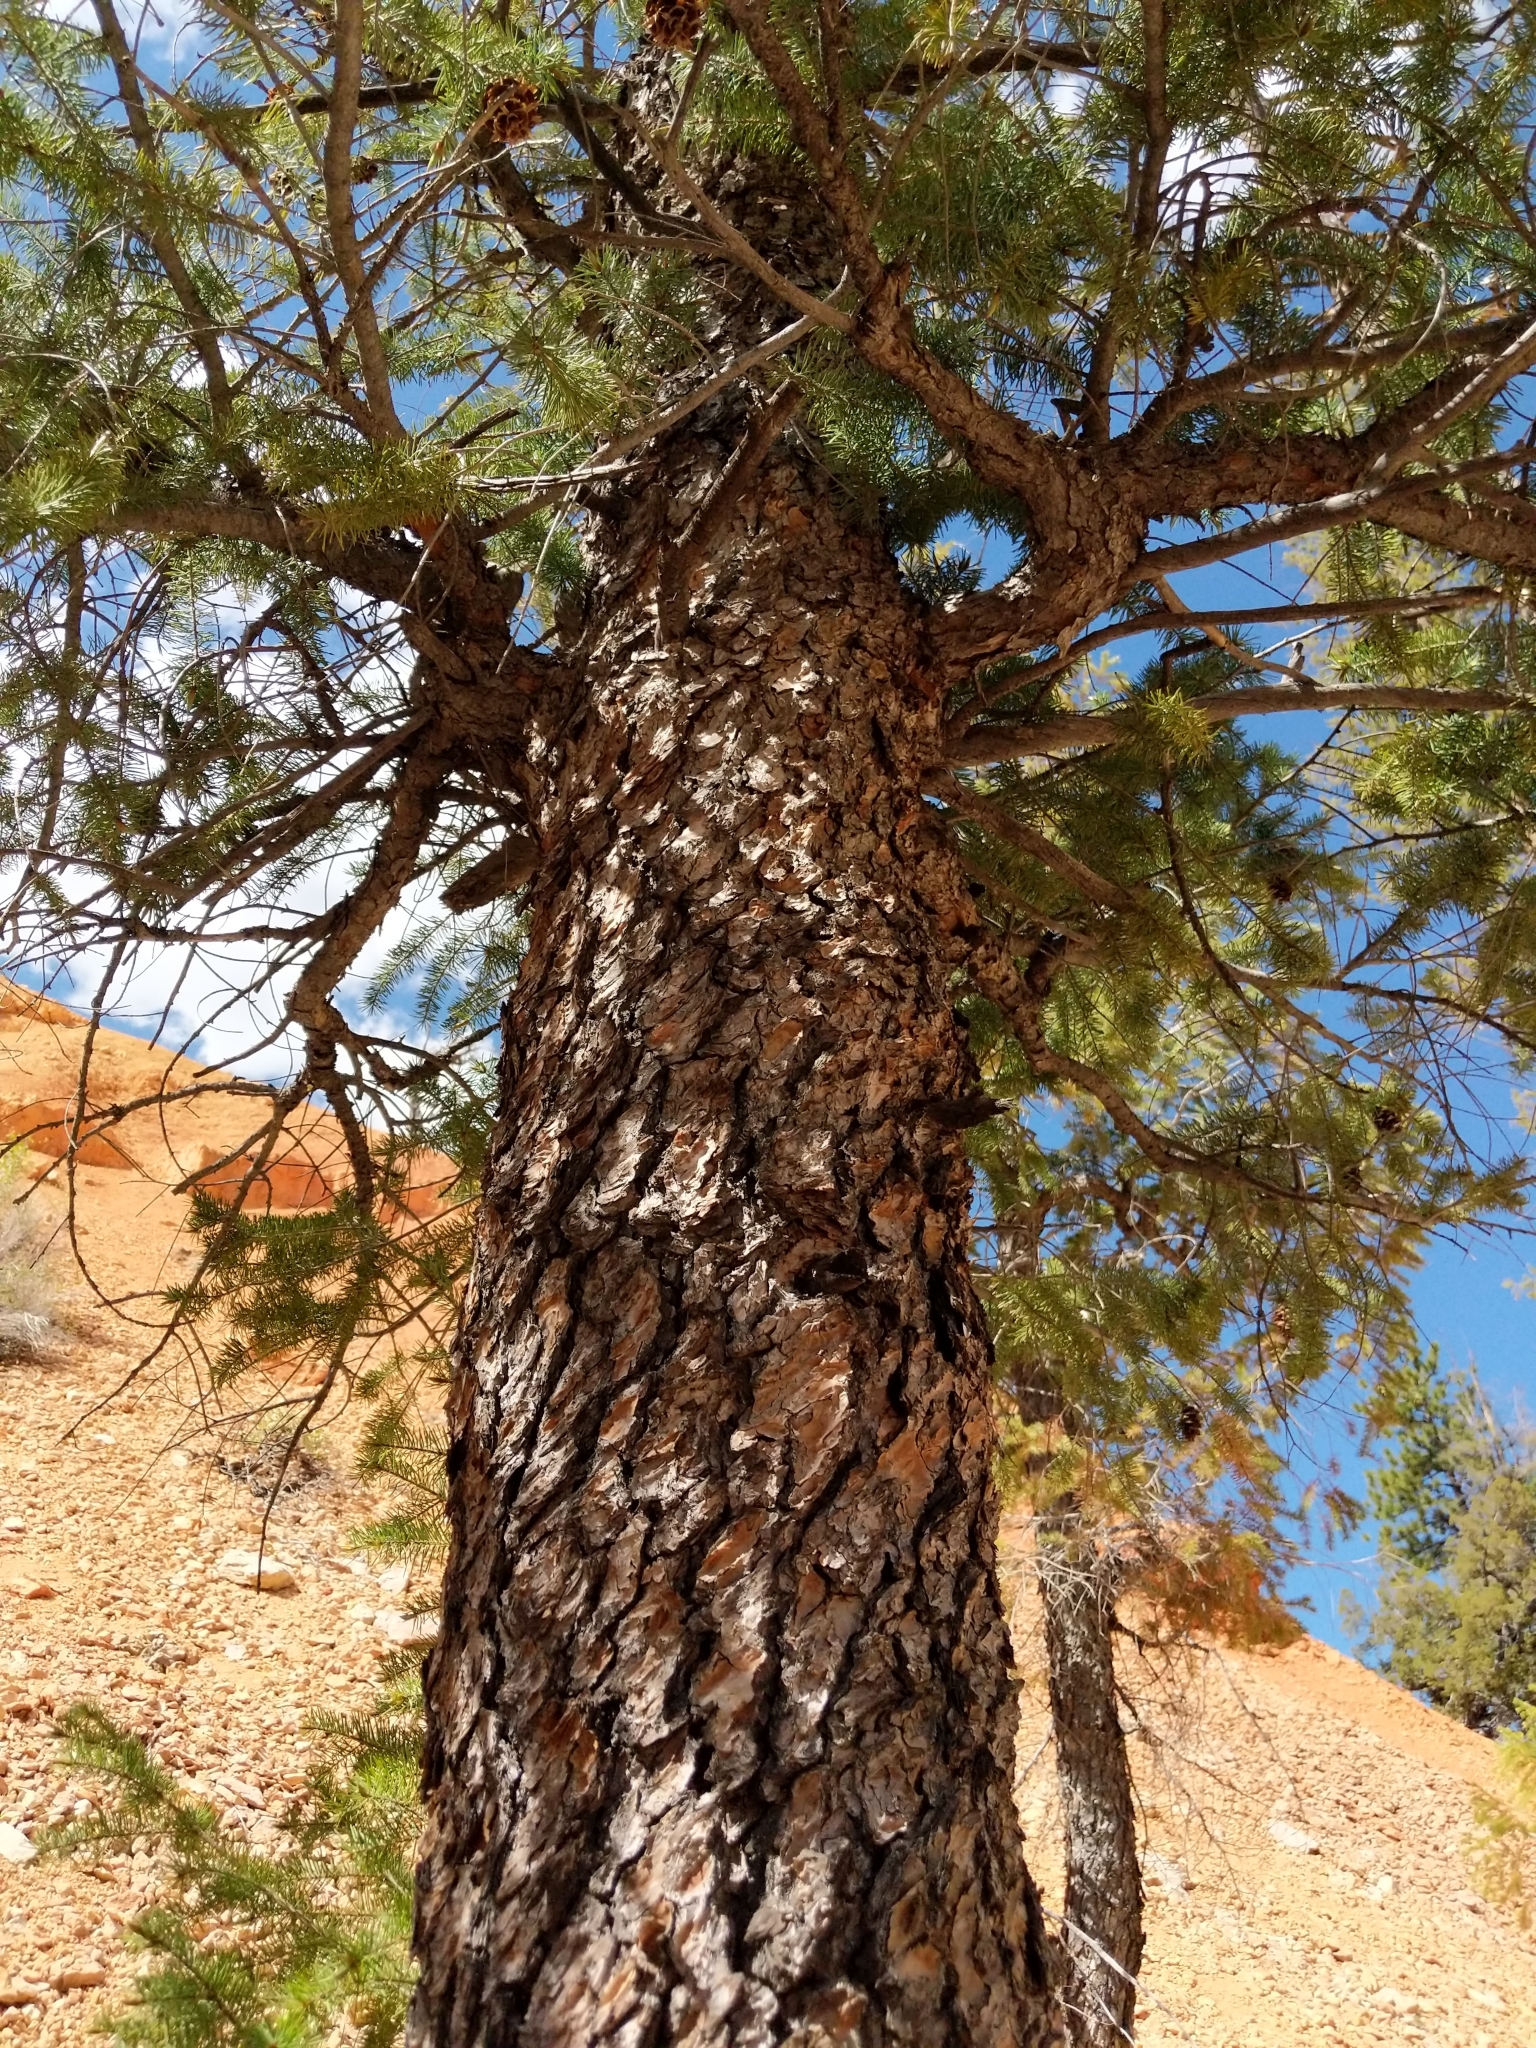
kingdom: Plantae
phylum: Tracheophyta
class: Pinopsida
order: Pinales
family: Pinaceae
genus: Pseudotsuga
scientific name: Pseudotsuga menziesii
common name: Douglas fir
